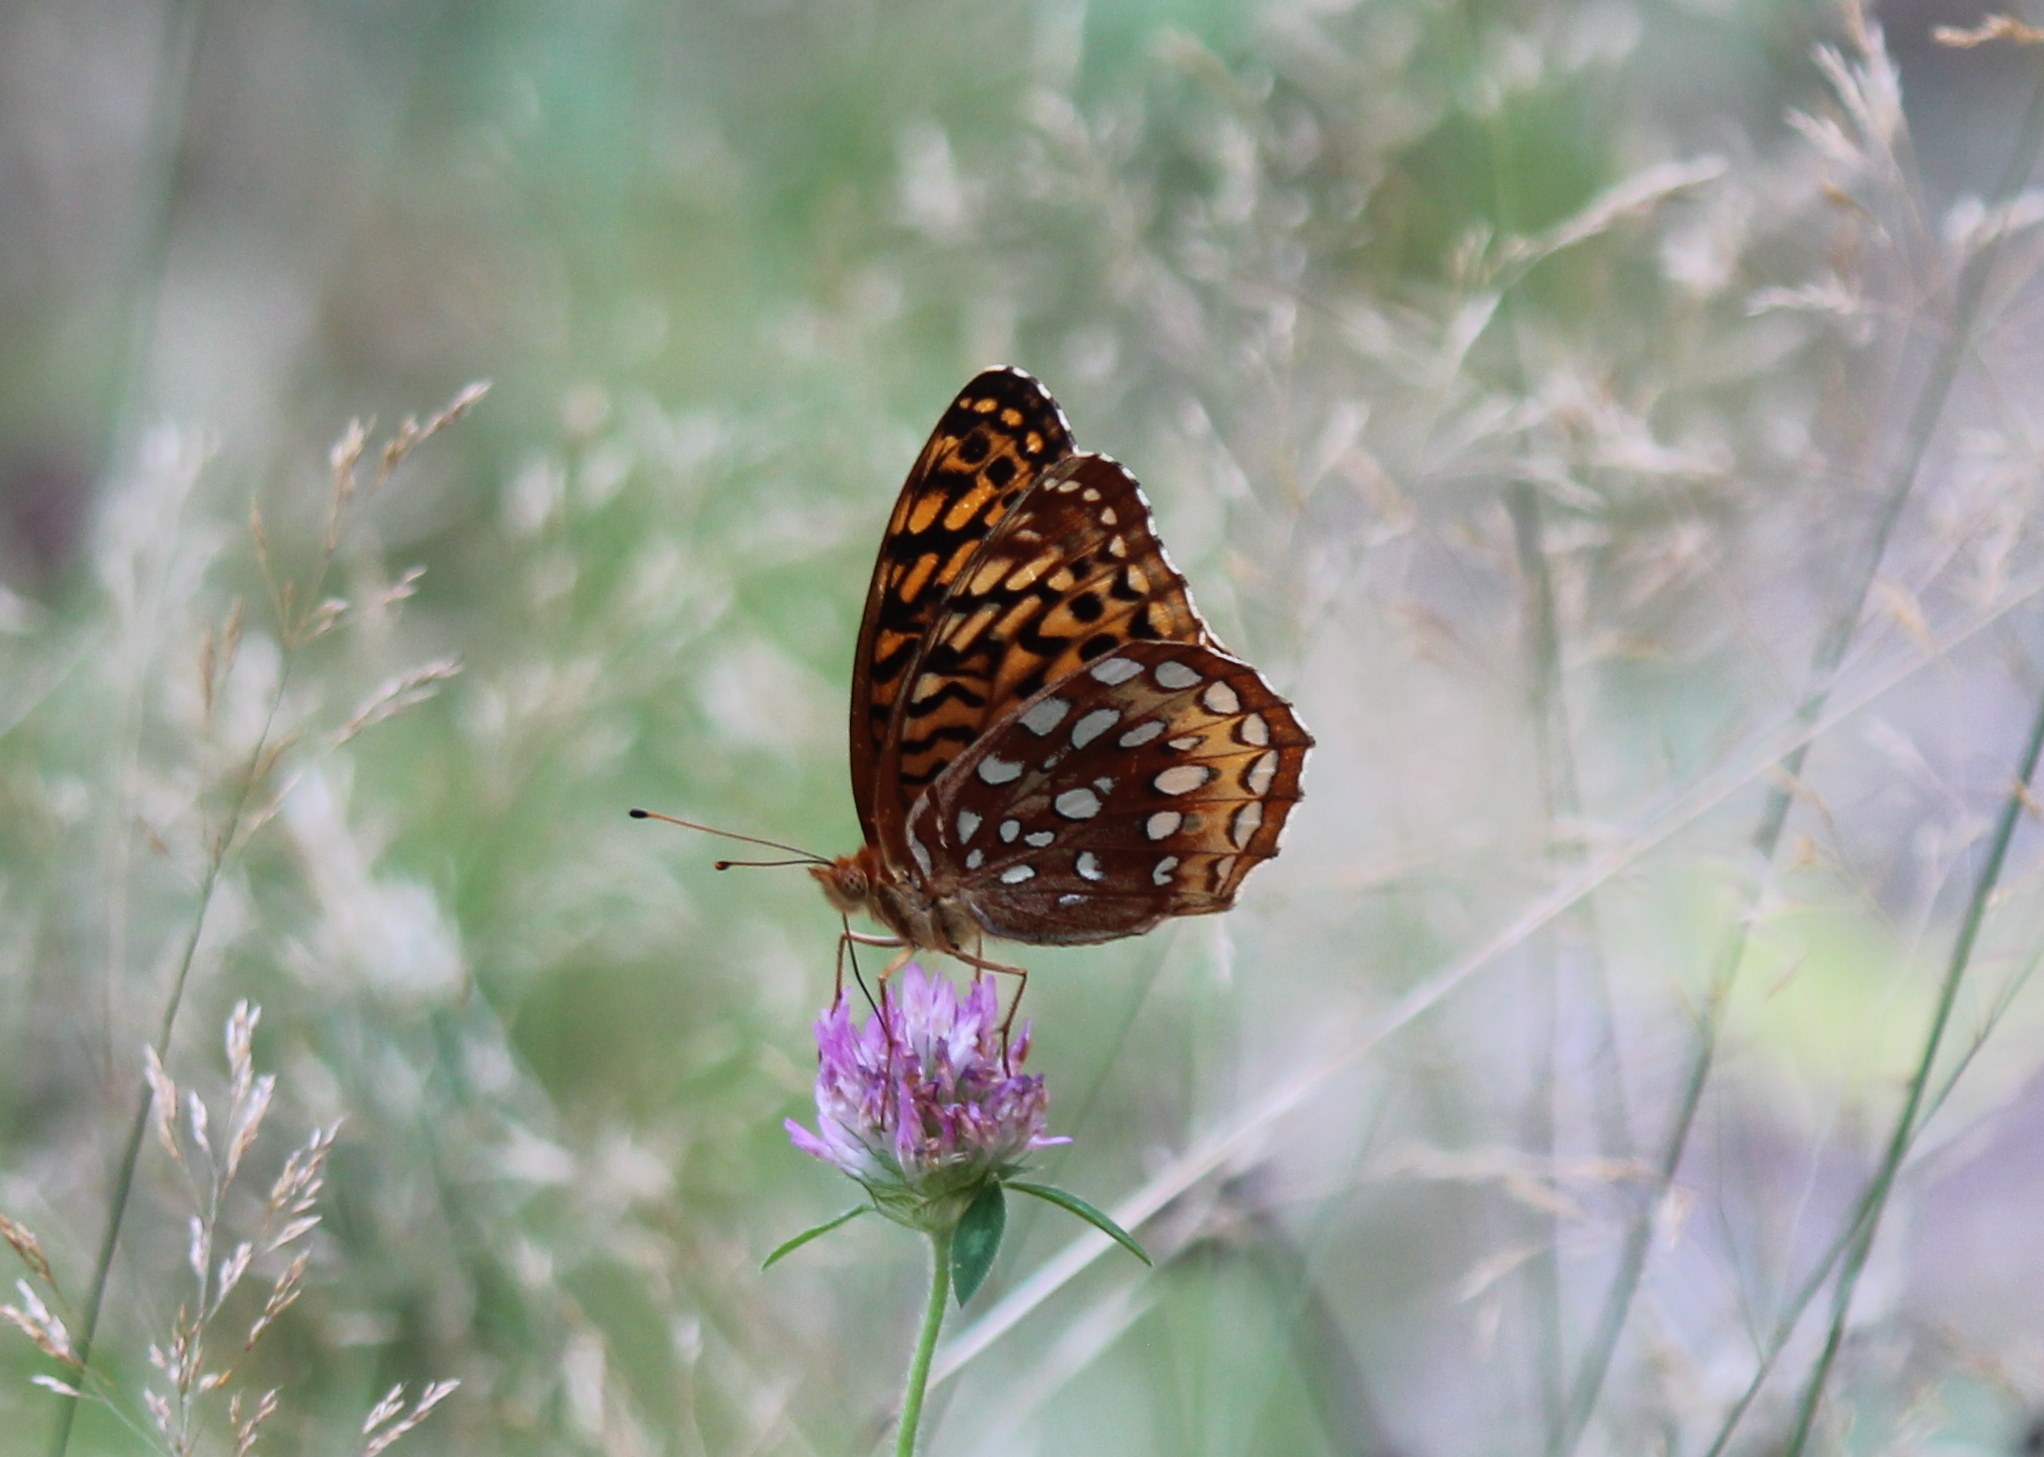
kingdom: Animalia
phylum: Arthropoda
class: Insecta
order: Lepidoptera
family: Nymphalidae
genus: Speyeria
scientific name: Speyeria cybele
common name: Great spangled fritillary
